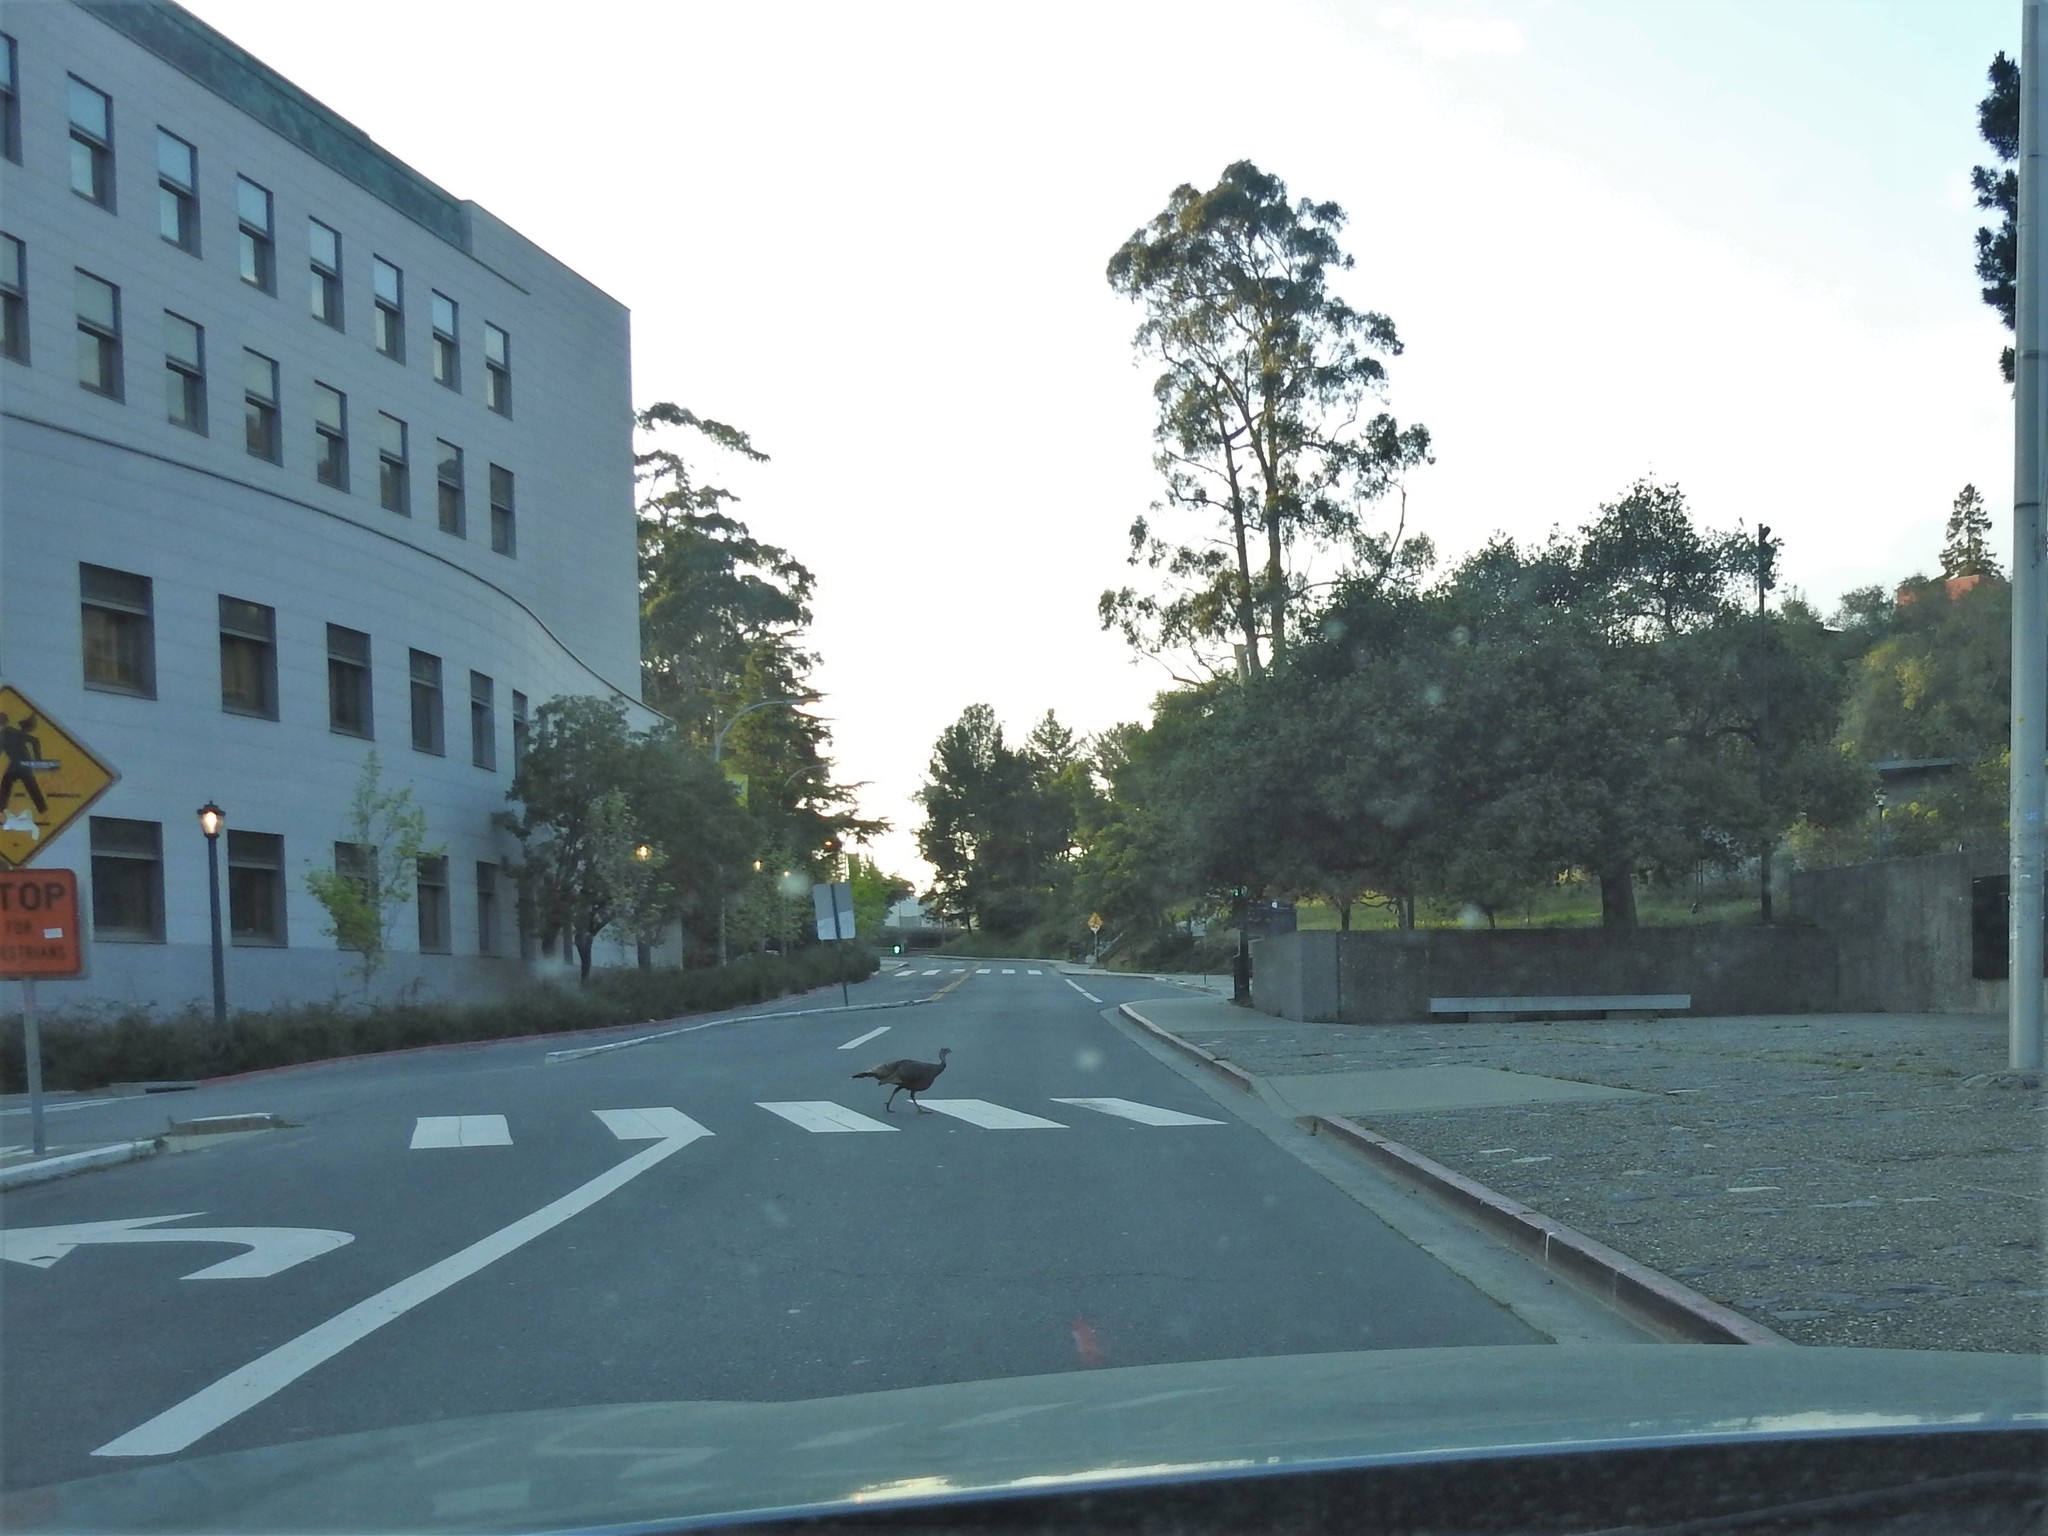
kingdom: Animalia
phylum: Chordata
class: Aves
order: Galliformes
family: Phasianidae
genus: Meleagris
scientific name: Meleagris gallopavo
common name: Wild turkey
